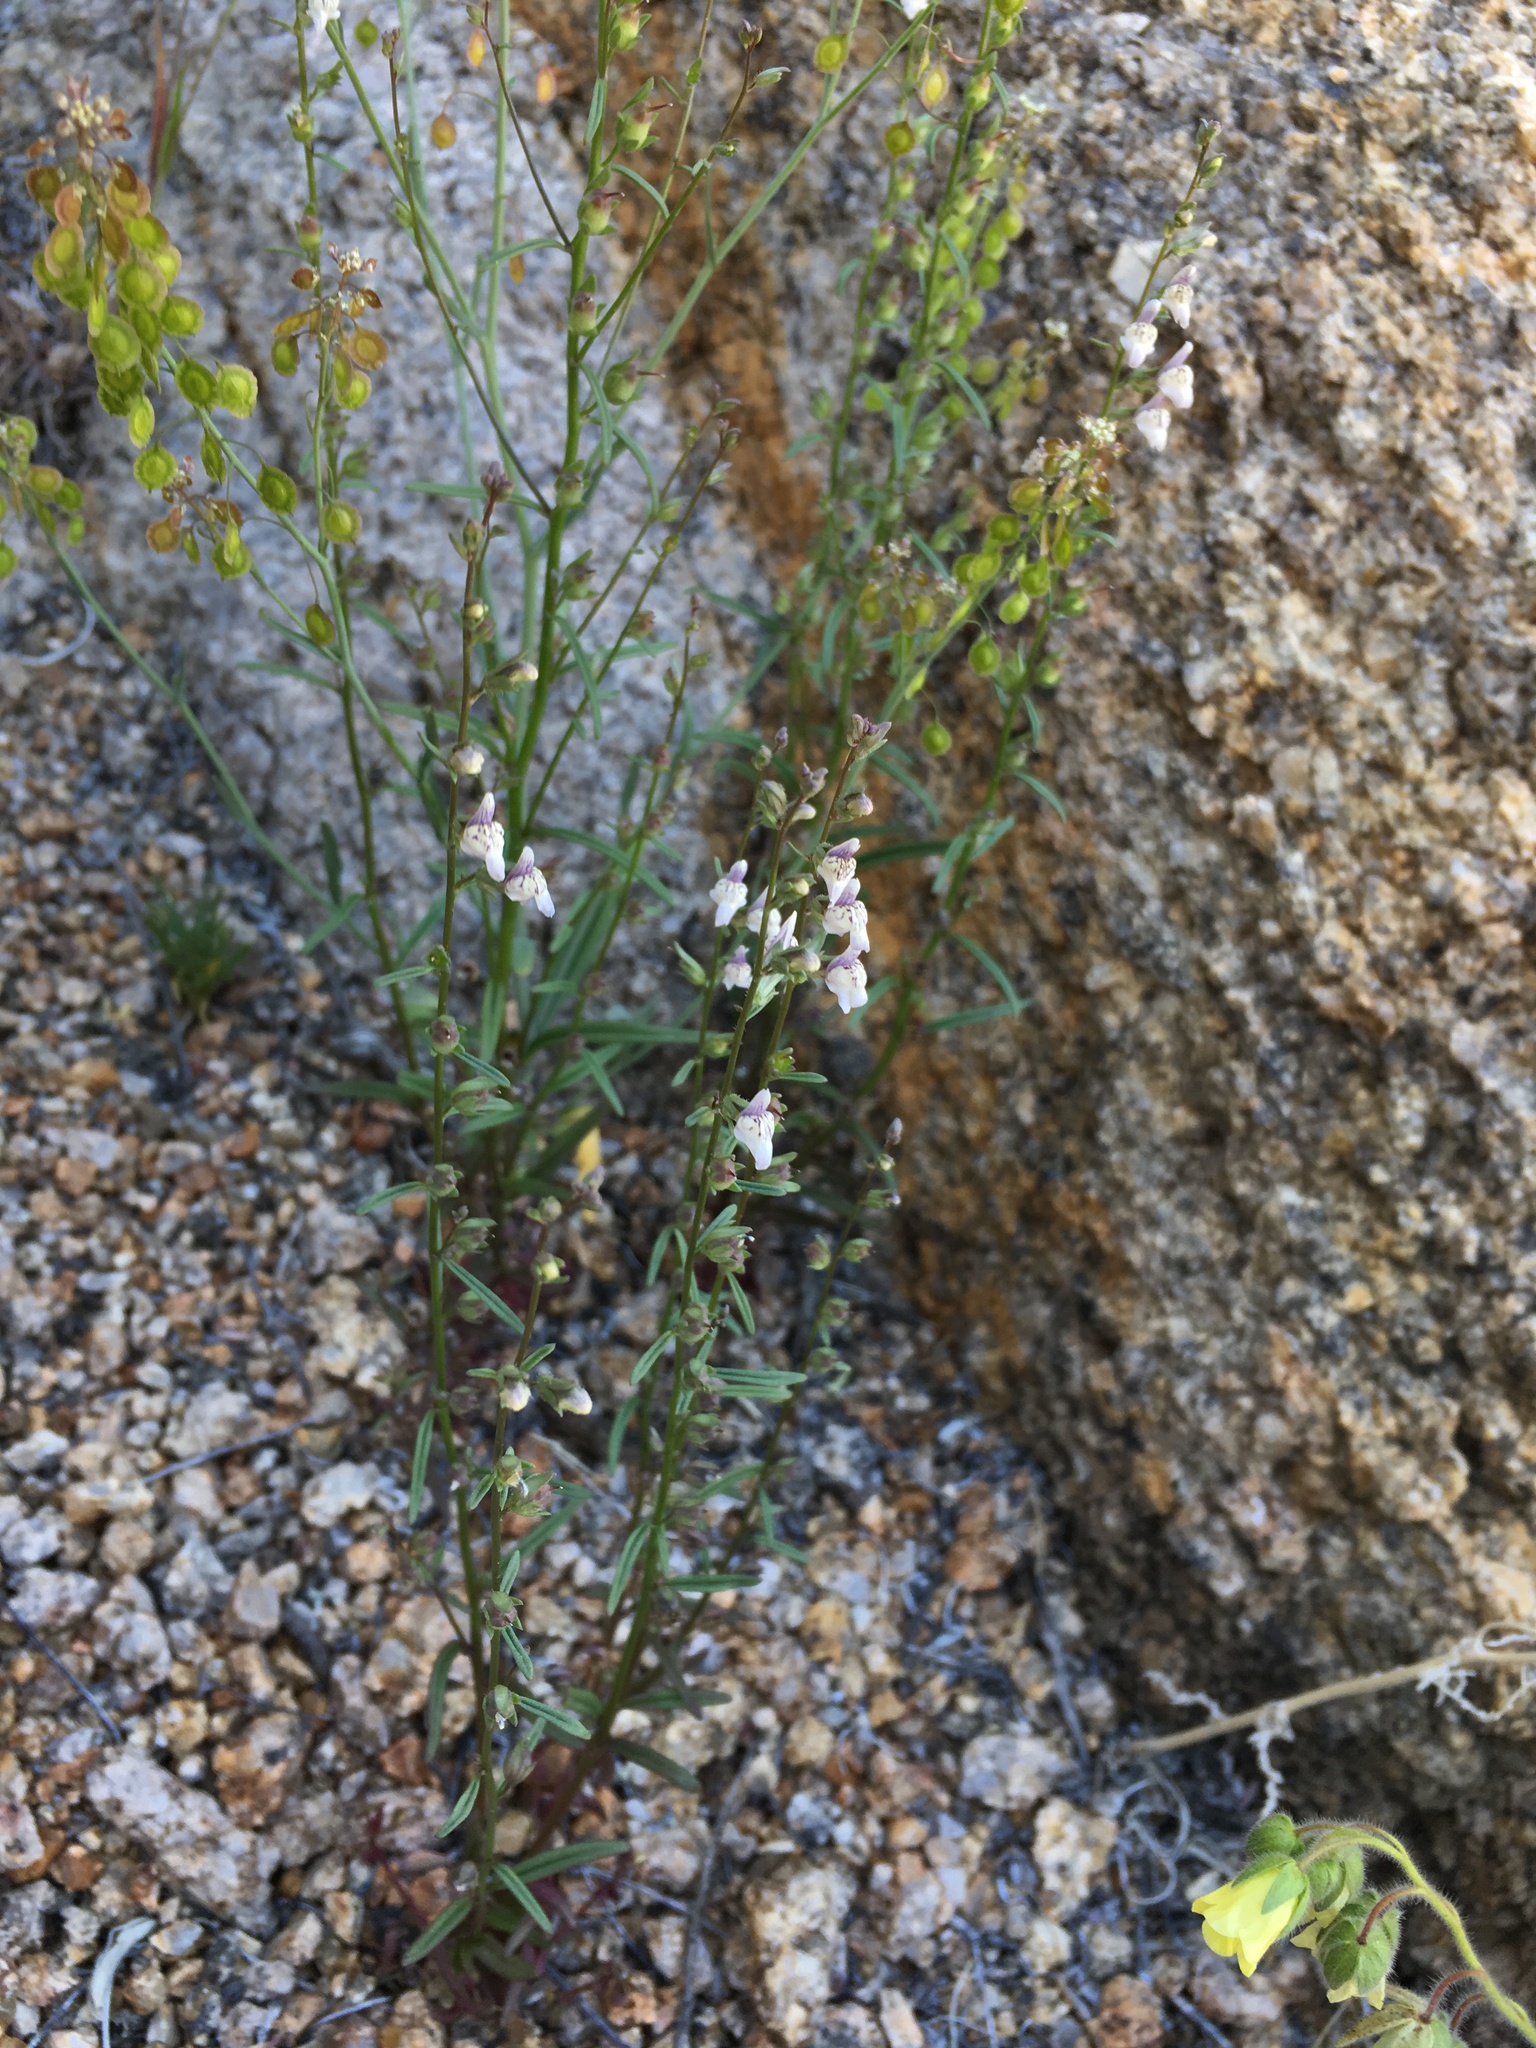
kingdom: Plantae
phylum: Tracheophyta
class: Magnoliopsida
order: Lamiales
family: Plantaginaceae
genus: Sairocarpus
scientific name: Sairocarpus kingii
